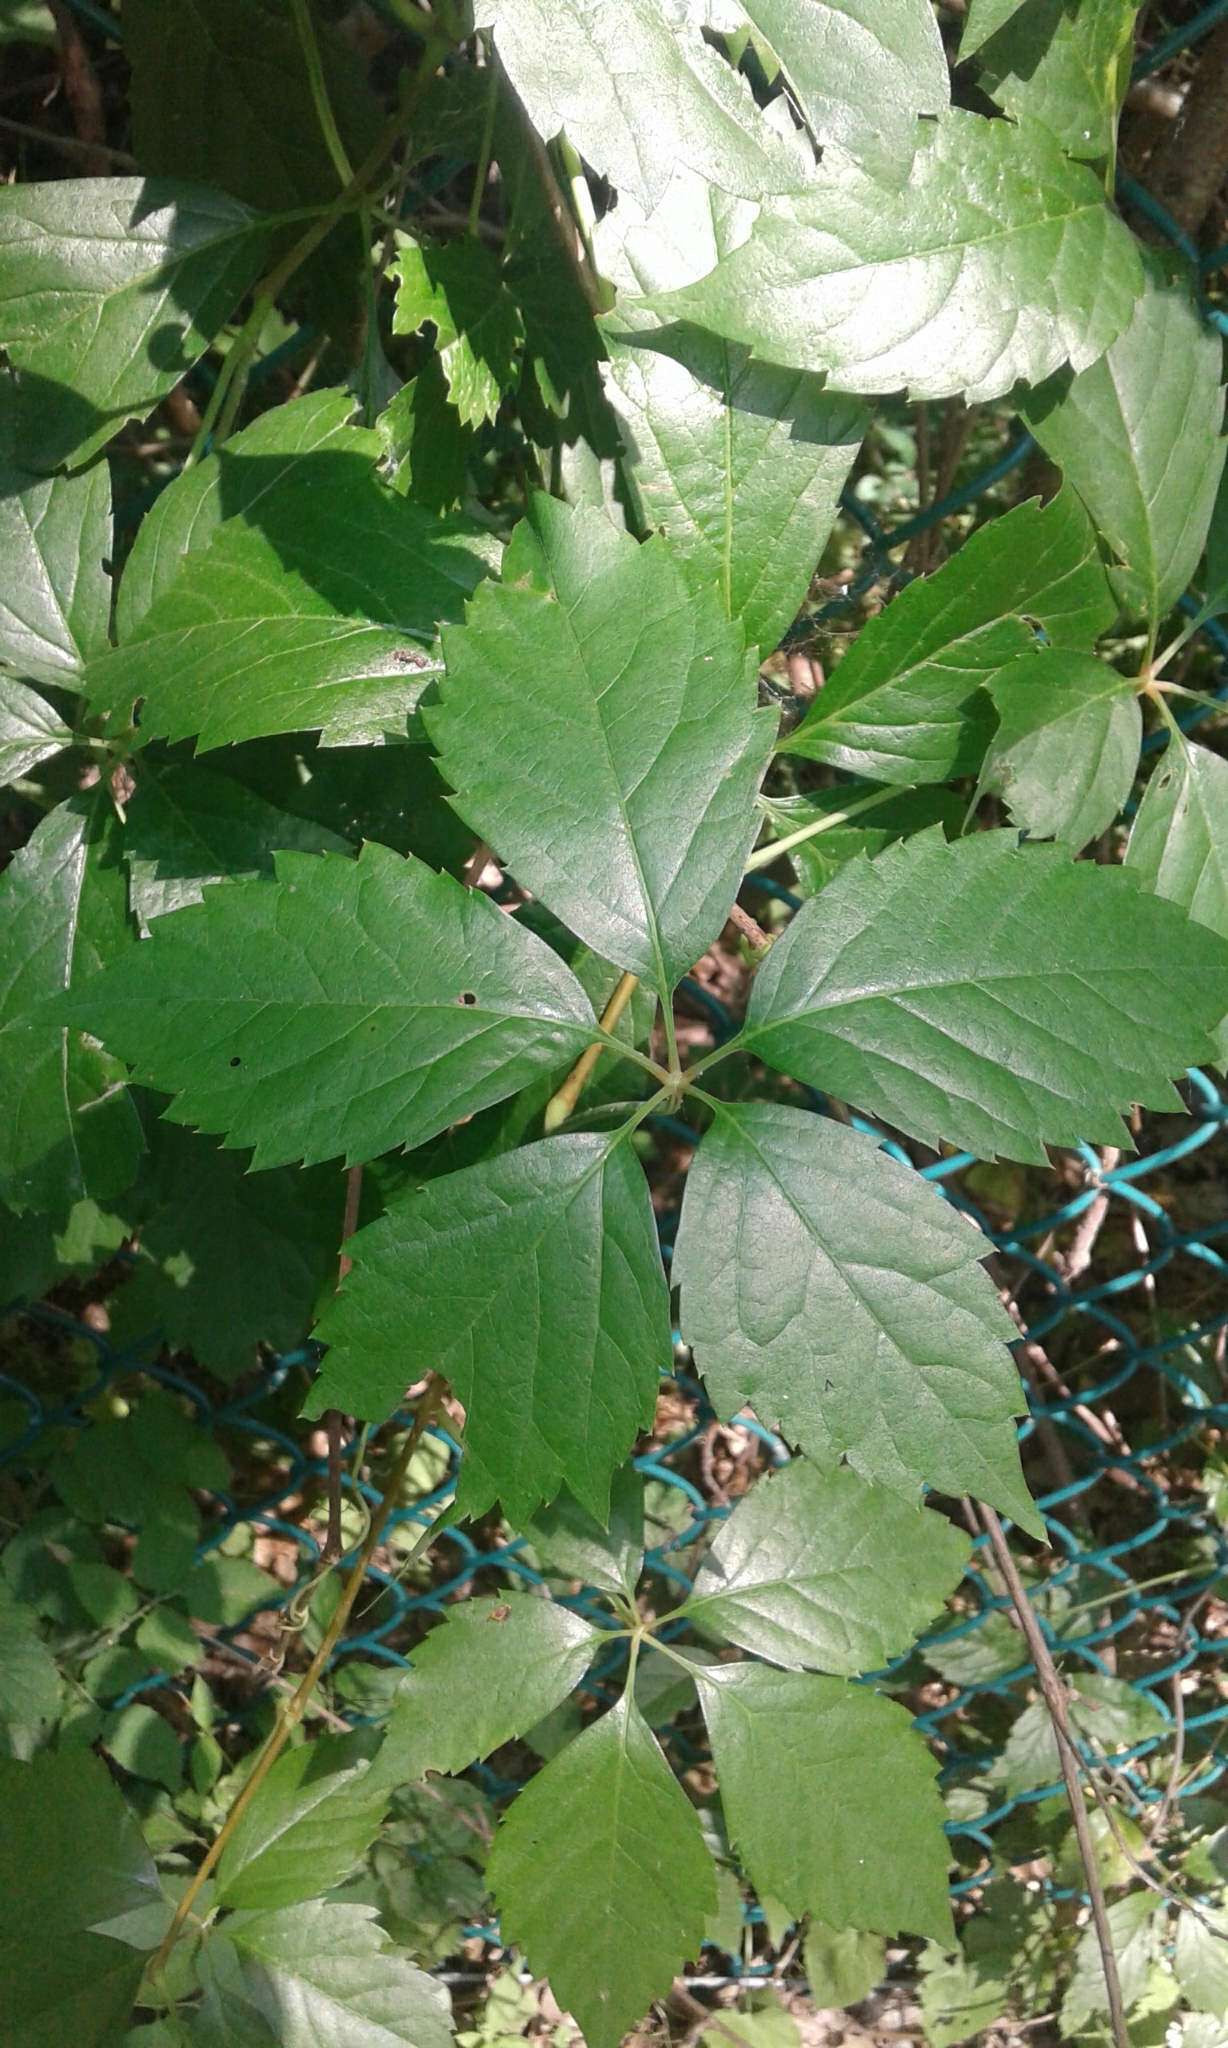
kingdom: Plantae
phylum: Tracheophyta
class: Magnoliopsida
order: Vitales
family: Vitaceae
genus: Parthenocissus
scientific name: Parthenocissus quinquefolia
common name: Virginia-creeper
